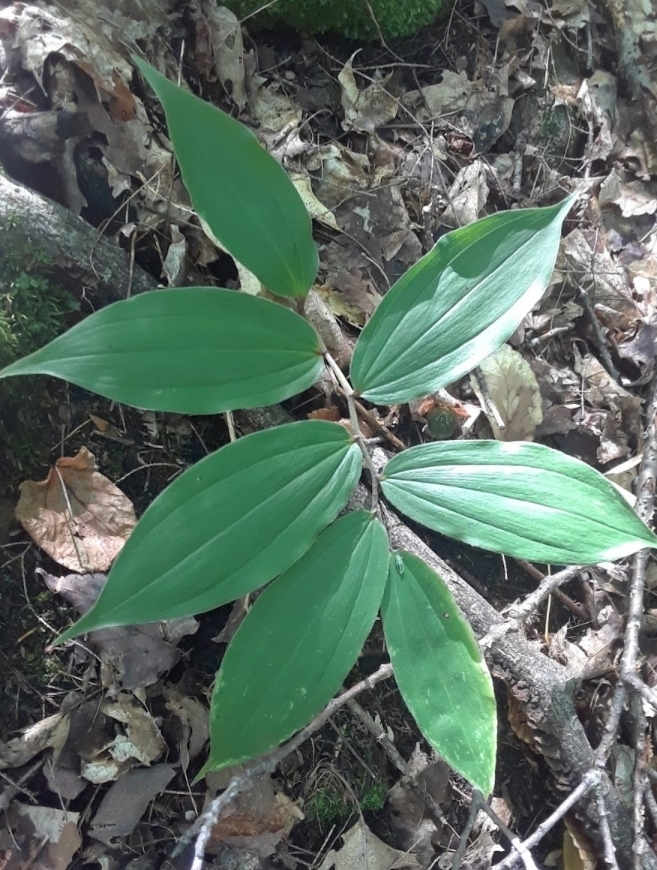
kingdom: Plantae
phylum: Tracheophyta
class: Liliopsida
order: Asparagales
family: Asparagaceae
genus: Maianthemum
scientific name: Maianthemum racemosum
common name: False spikenard
